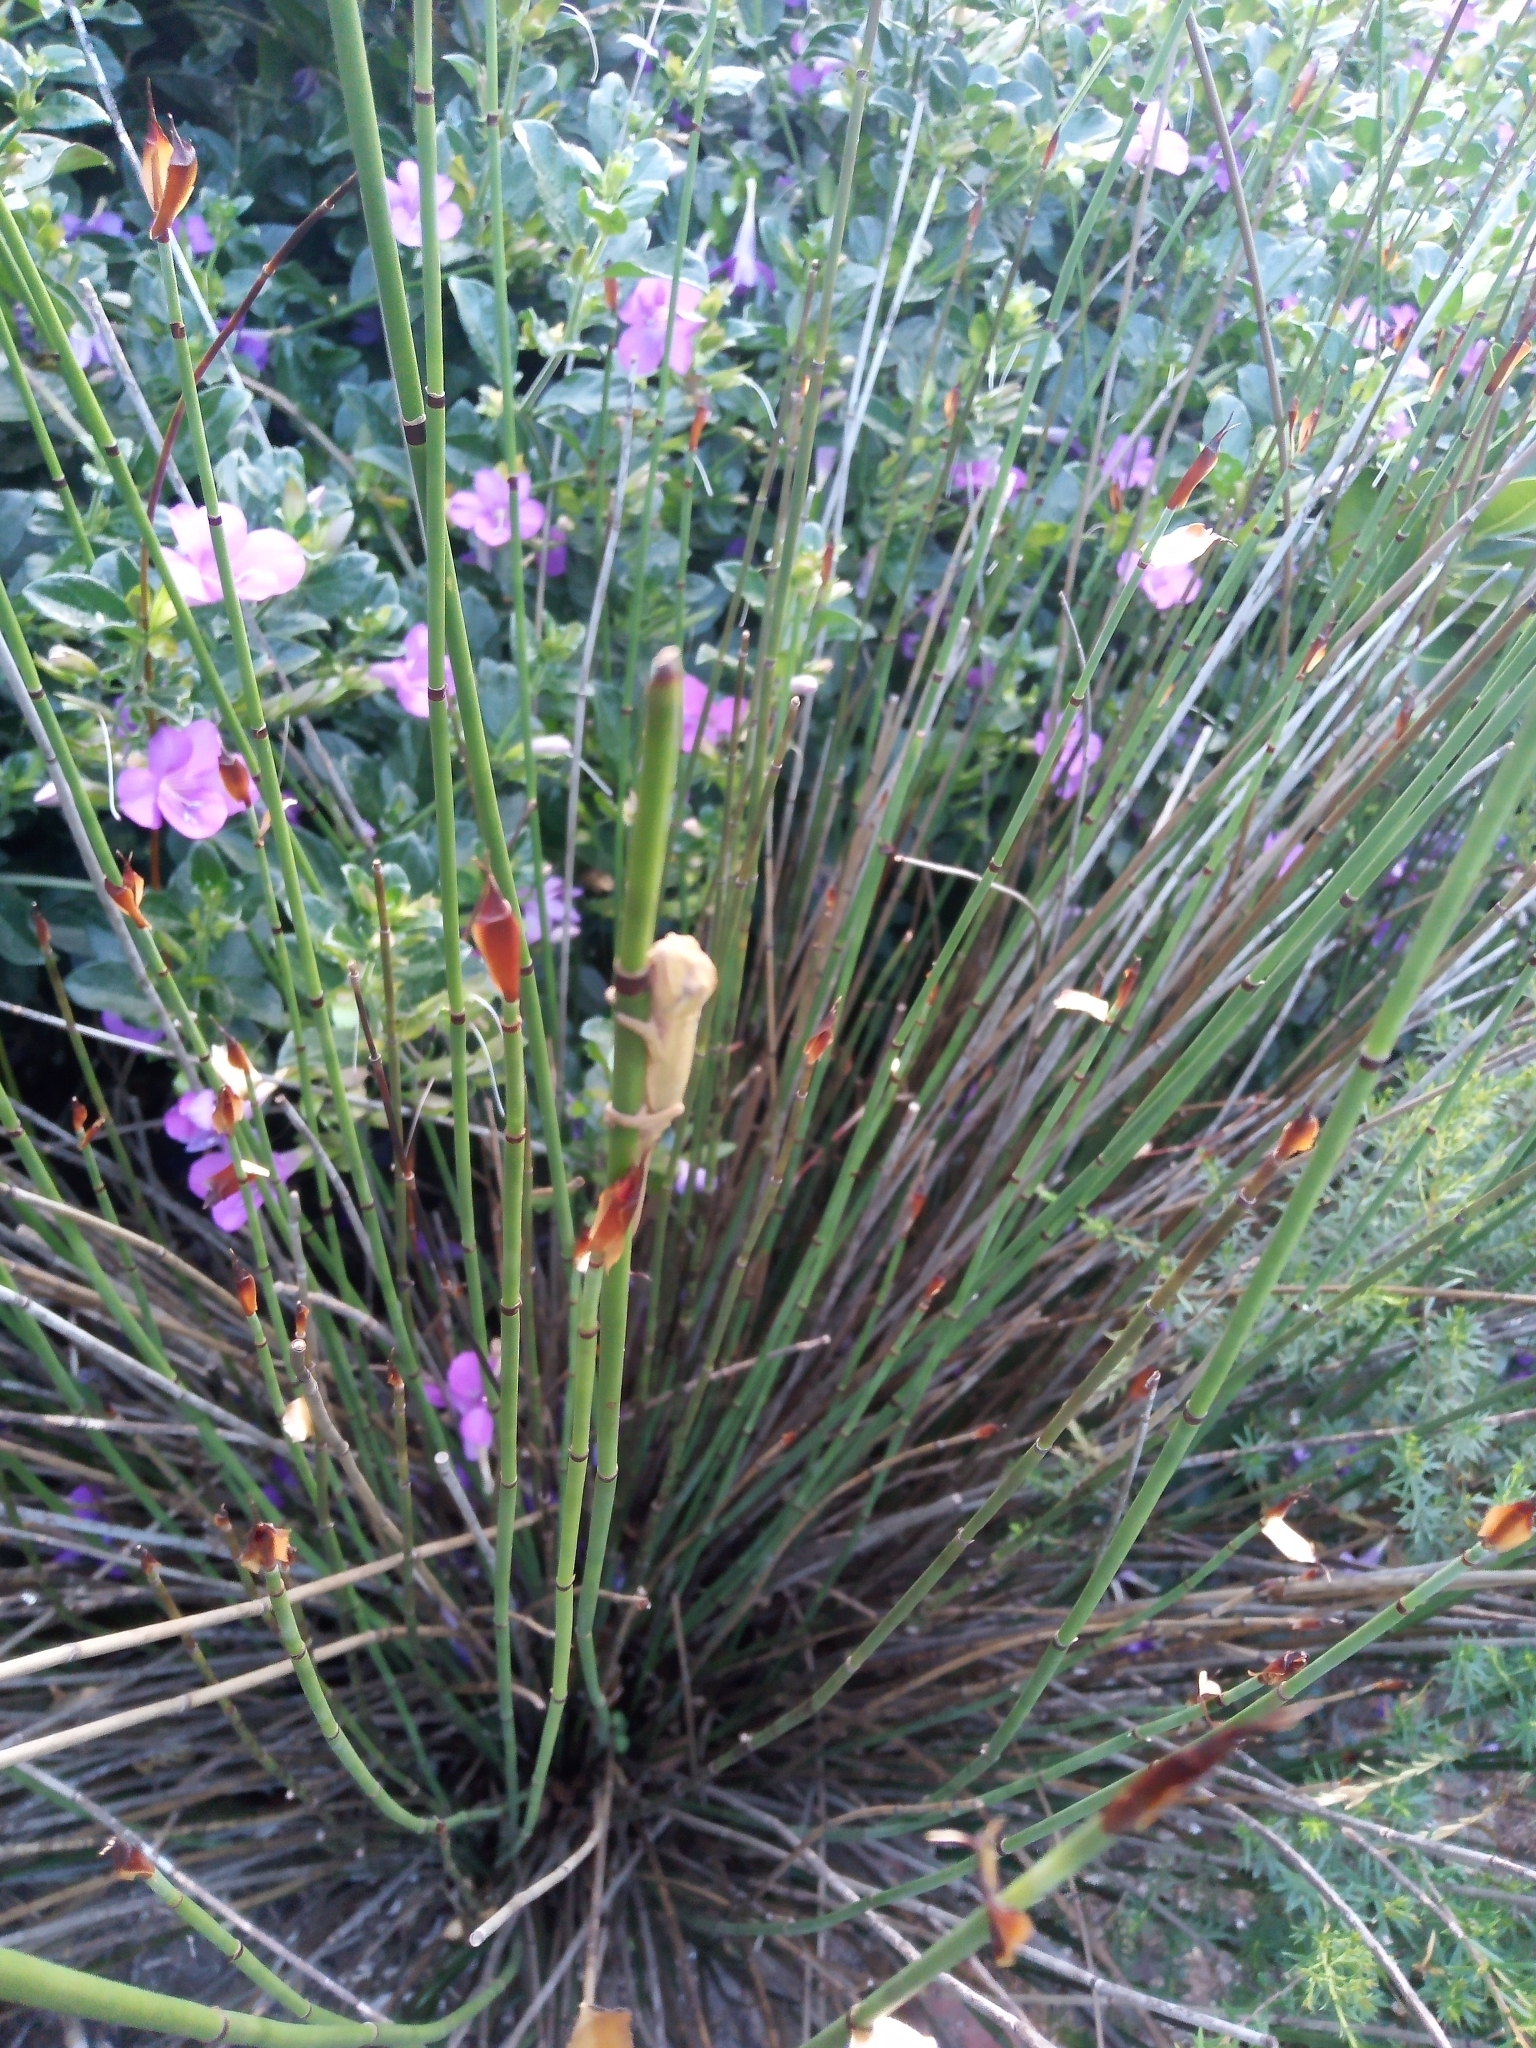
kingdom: Animalia
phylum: Chordata
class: Squamata
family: Chamaeleonidae
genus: Bradypodion
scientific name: Bradypodion pumilum
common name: Cape dwarf chameleon
